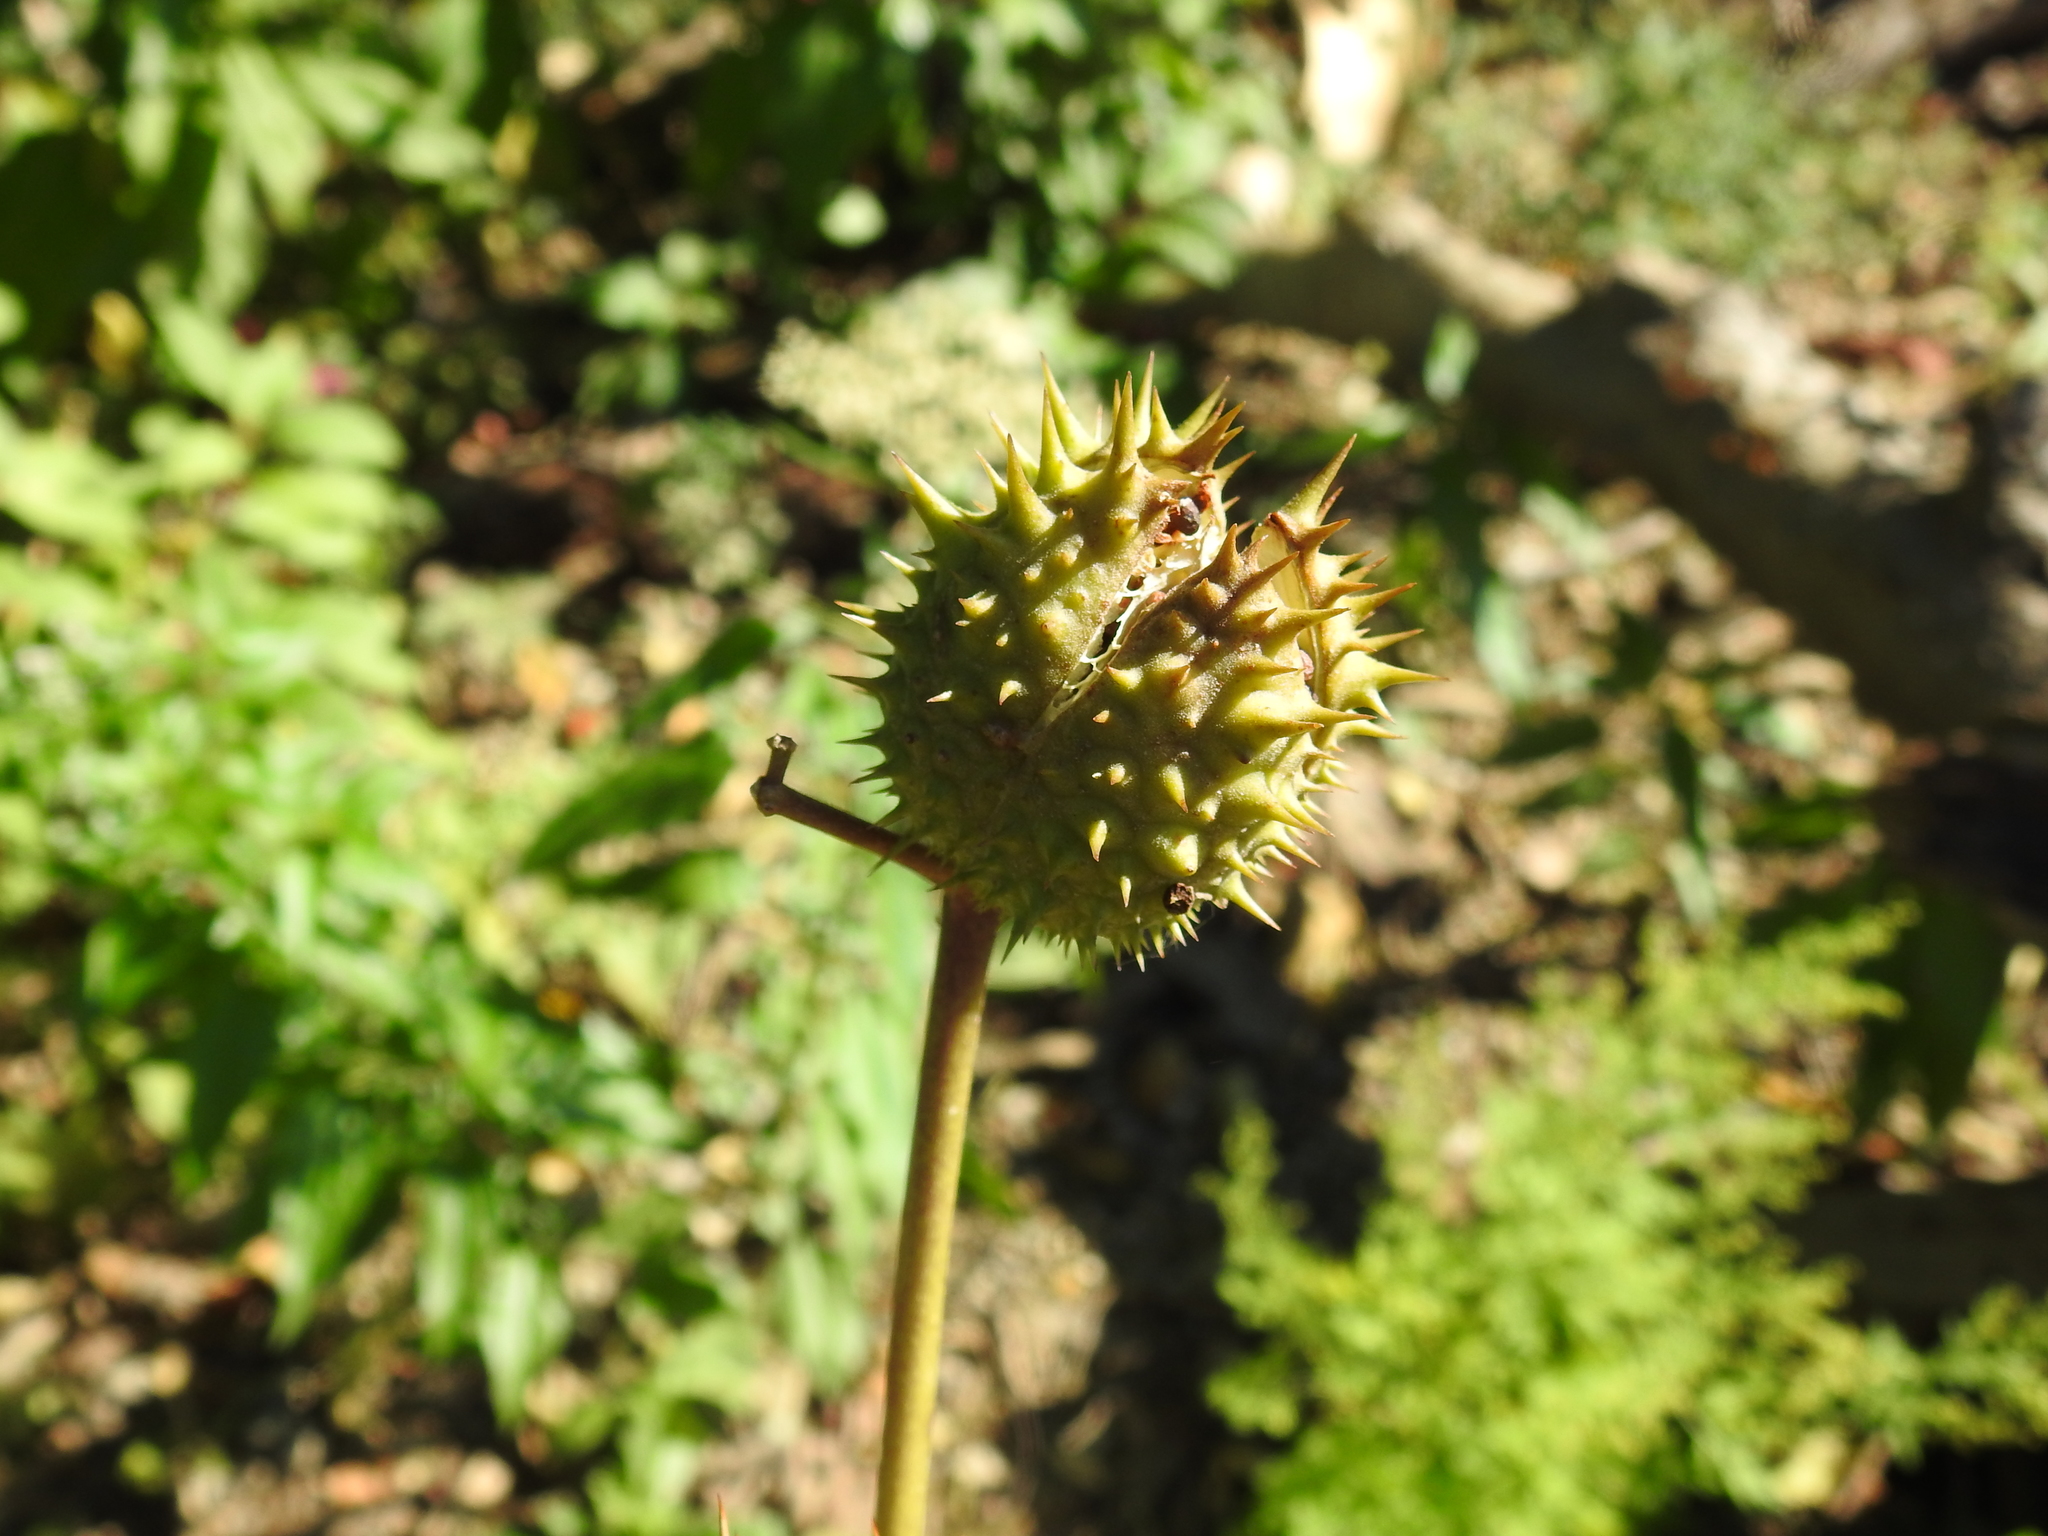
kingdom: Plantae
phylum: Tracheophyta
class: Magnoliopsida
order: Solanales
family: Solanaceae
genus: Datura
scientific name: Datura stramonium
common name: Thorn-apple
